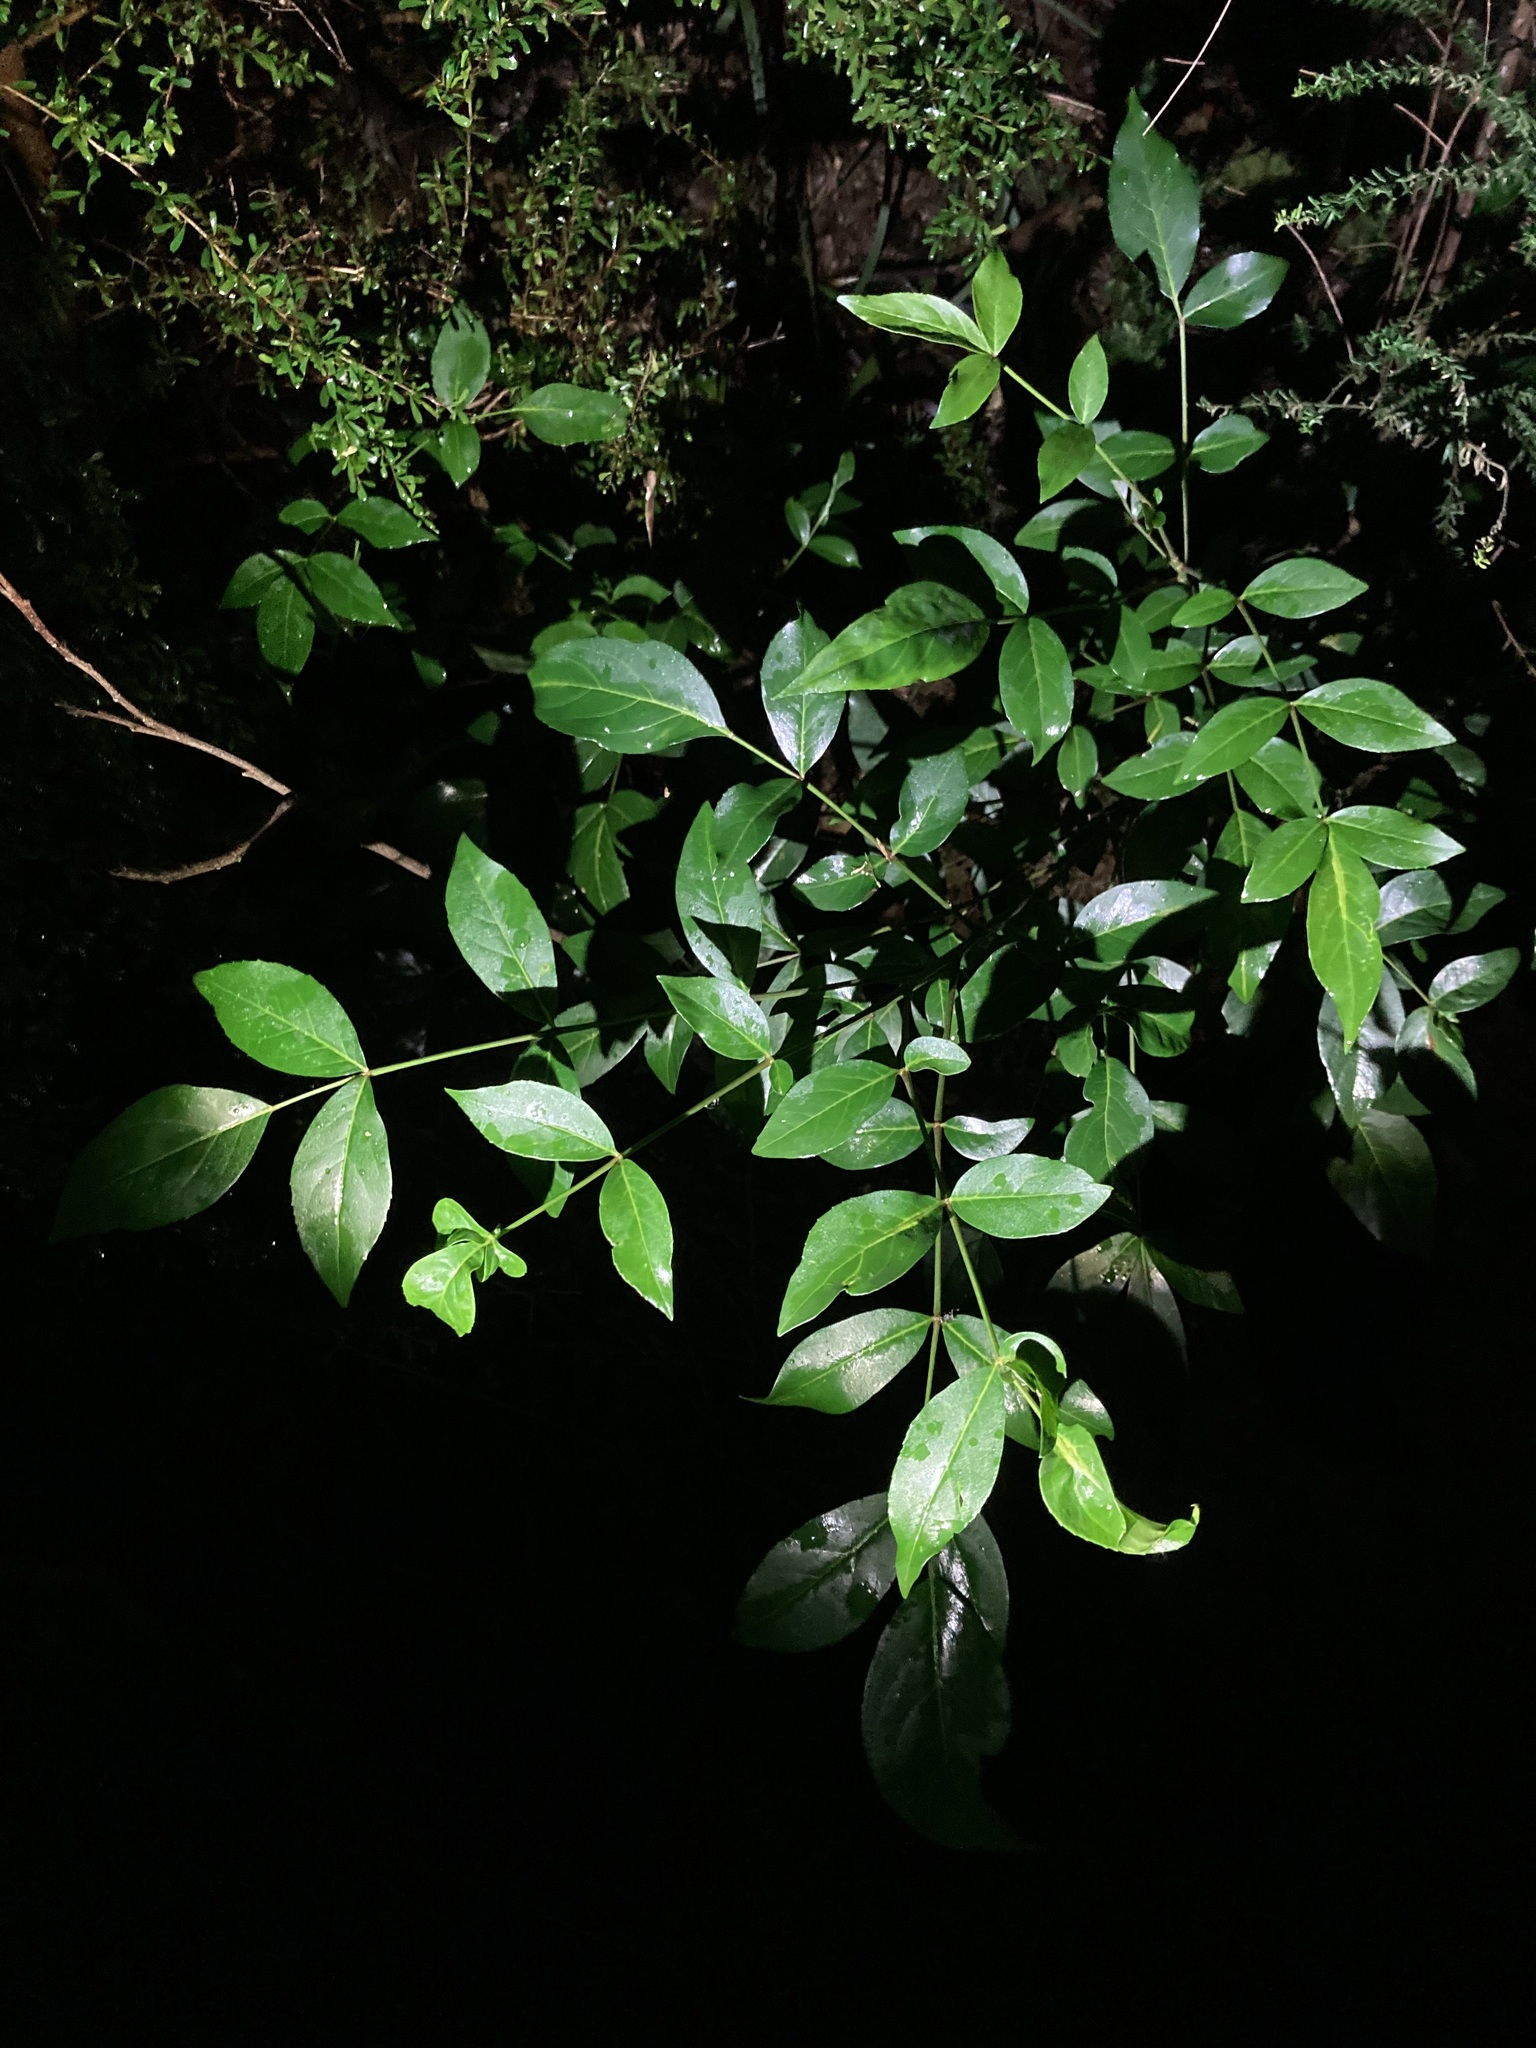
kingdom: Plantae
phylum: Tracheophyta
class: Magnoliopsida
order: Apiales
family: Araliaceae
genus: Polyscias
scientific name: Polyscias sambucifolia
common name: Elderberry-ash
